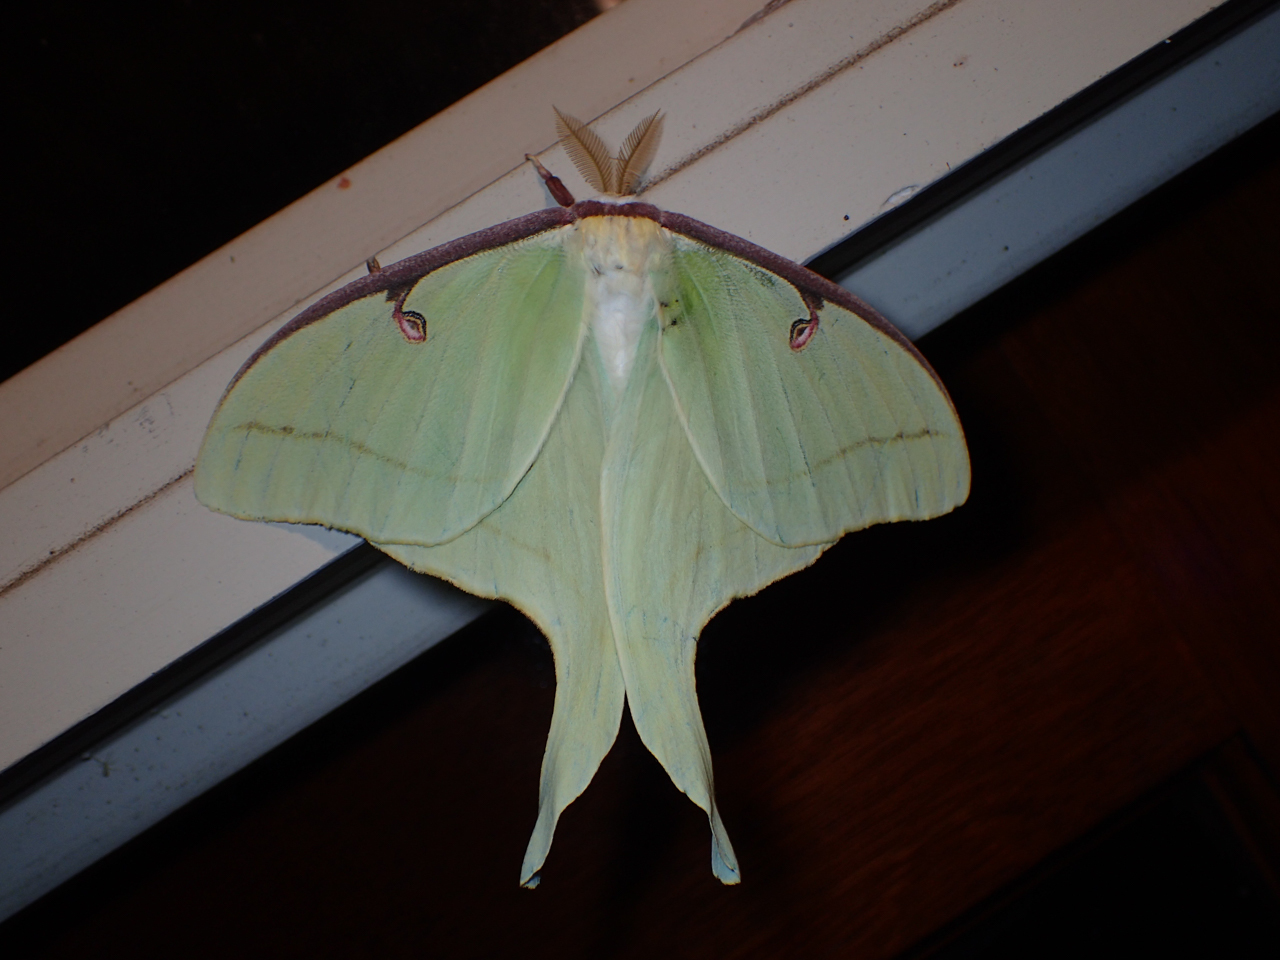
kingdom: Animalia
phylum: Arthropoda
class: Insecta
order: Lepidoptera
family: Saturniidae
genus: Actias
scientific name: Actias luna
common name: Luna moth
